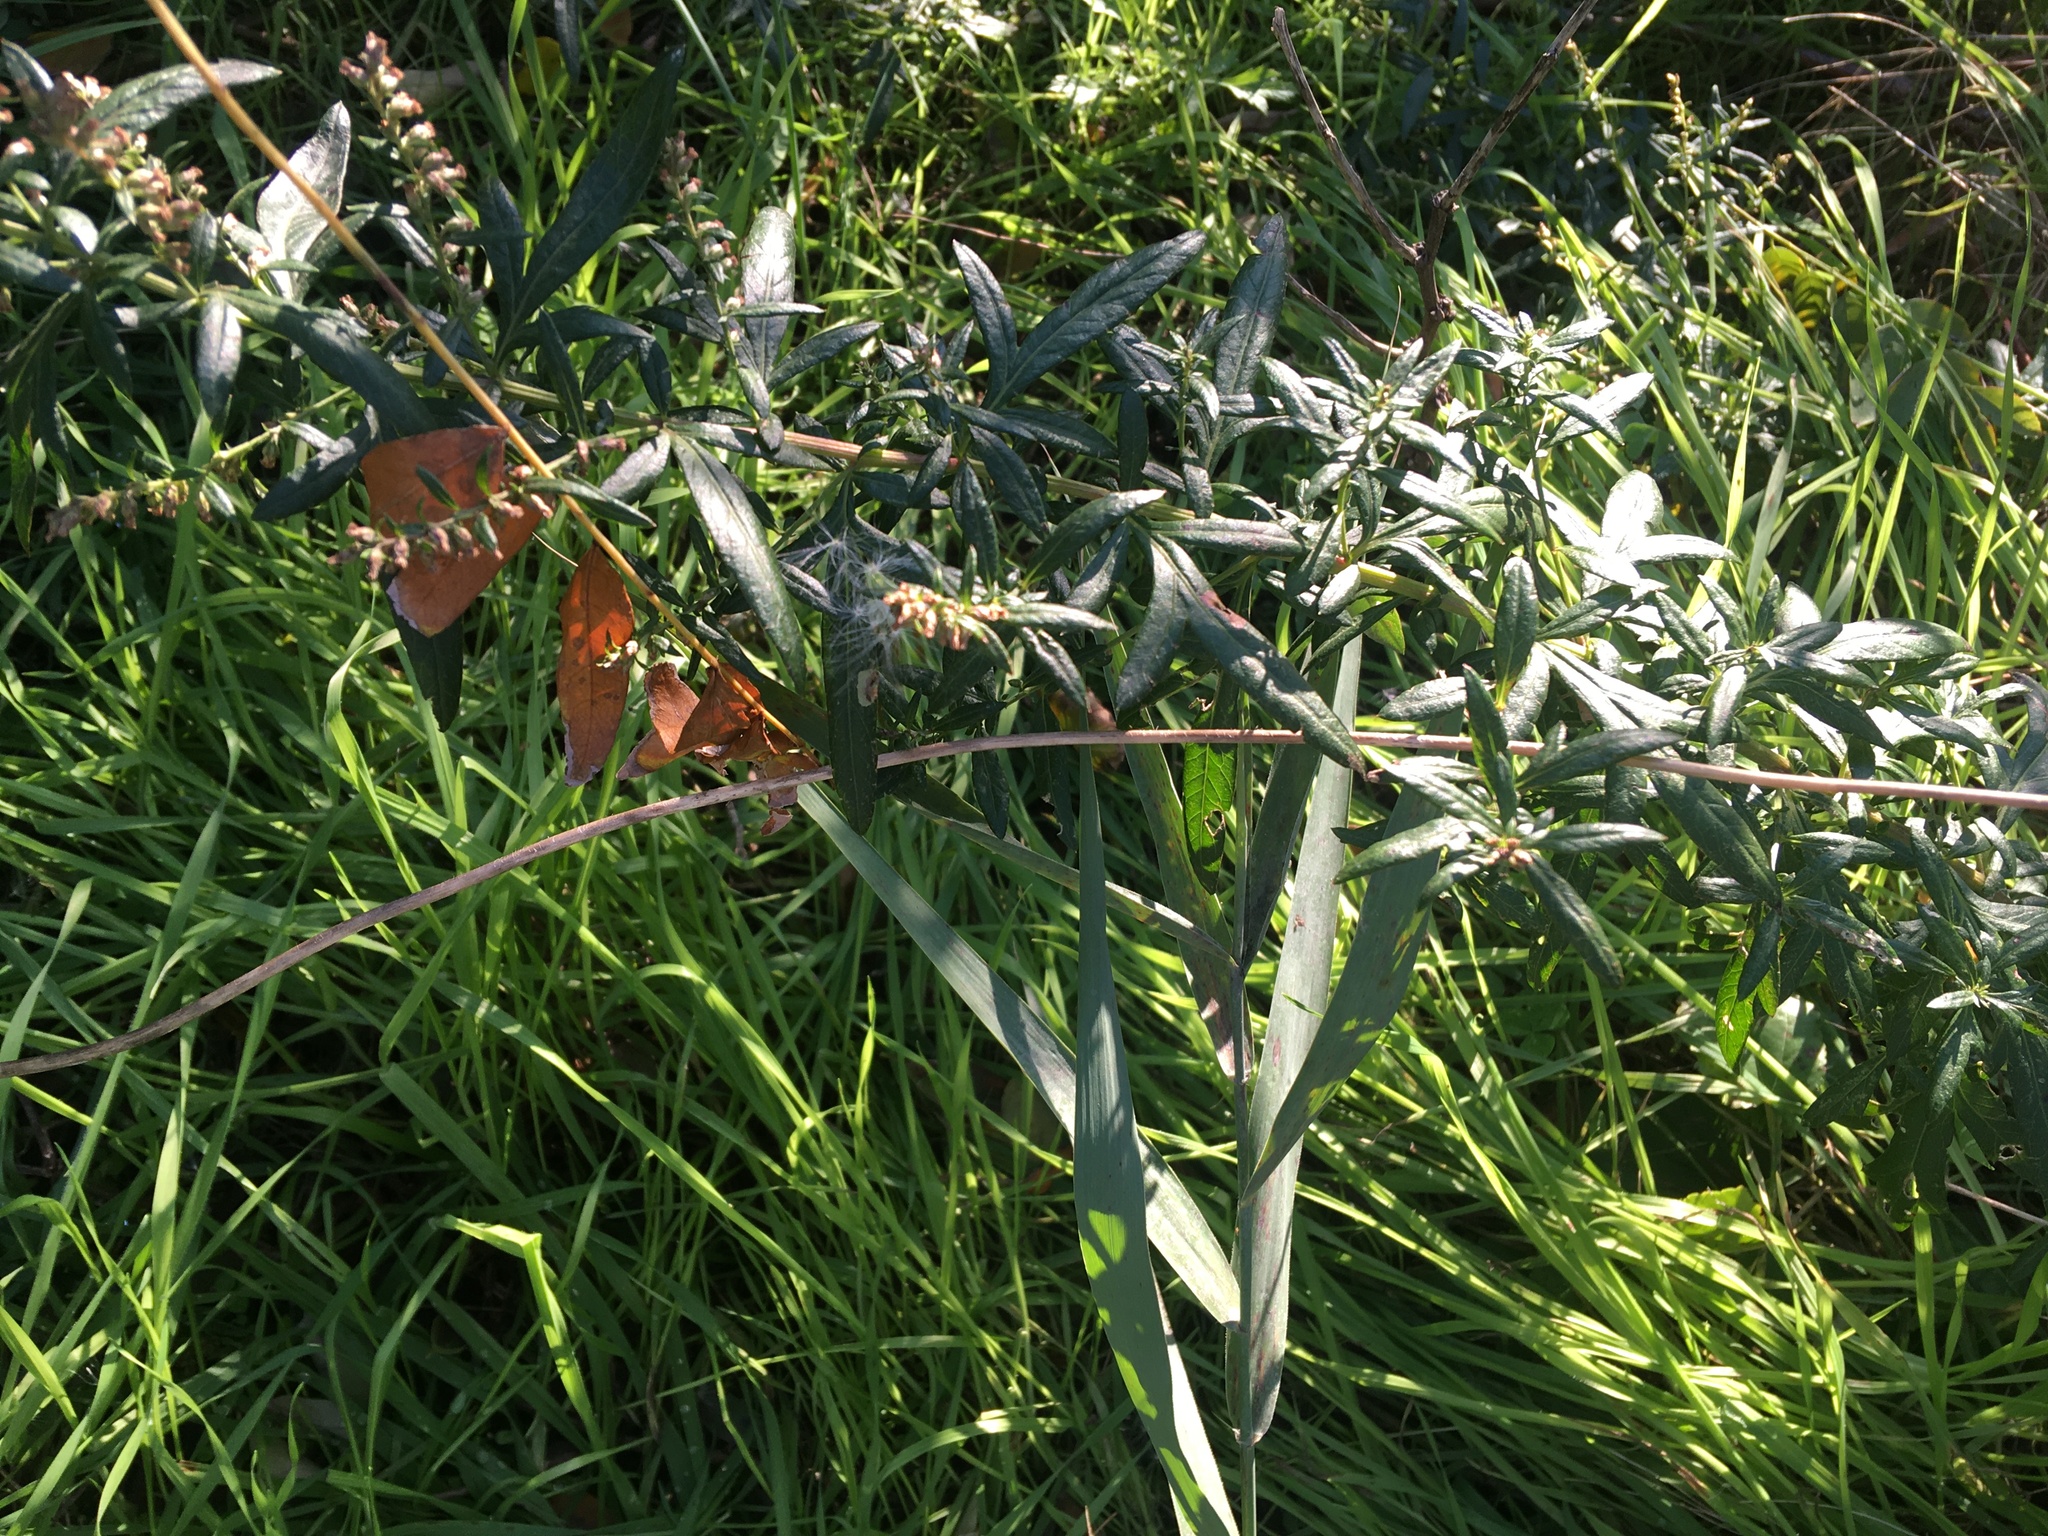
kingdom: Plantae
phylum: Tracheophyta
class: Magnoliopsida
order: Asterales
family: Asteraceae
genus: Artemisia
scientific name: Artemisia vulgaris
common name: Mugwort
